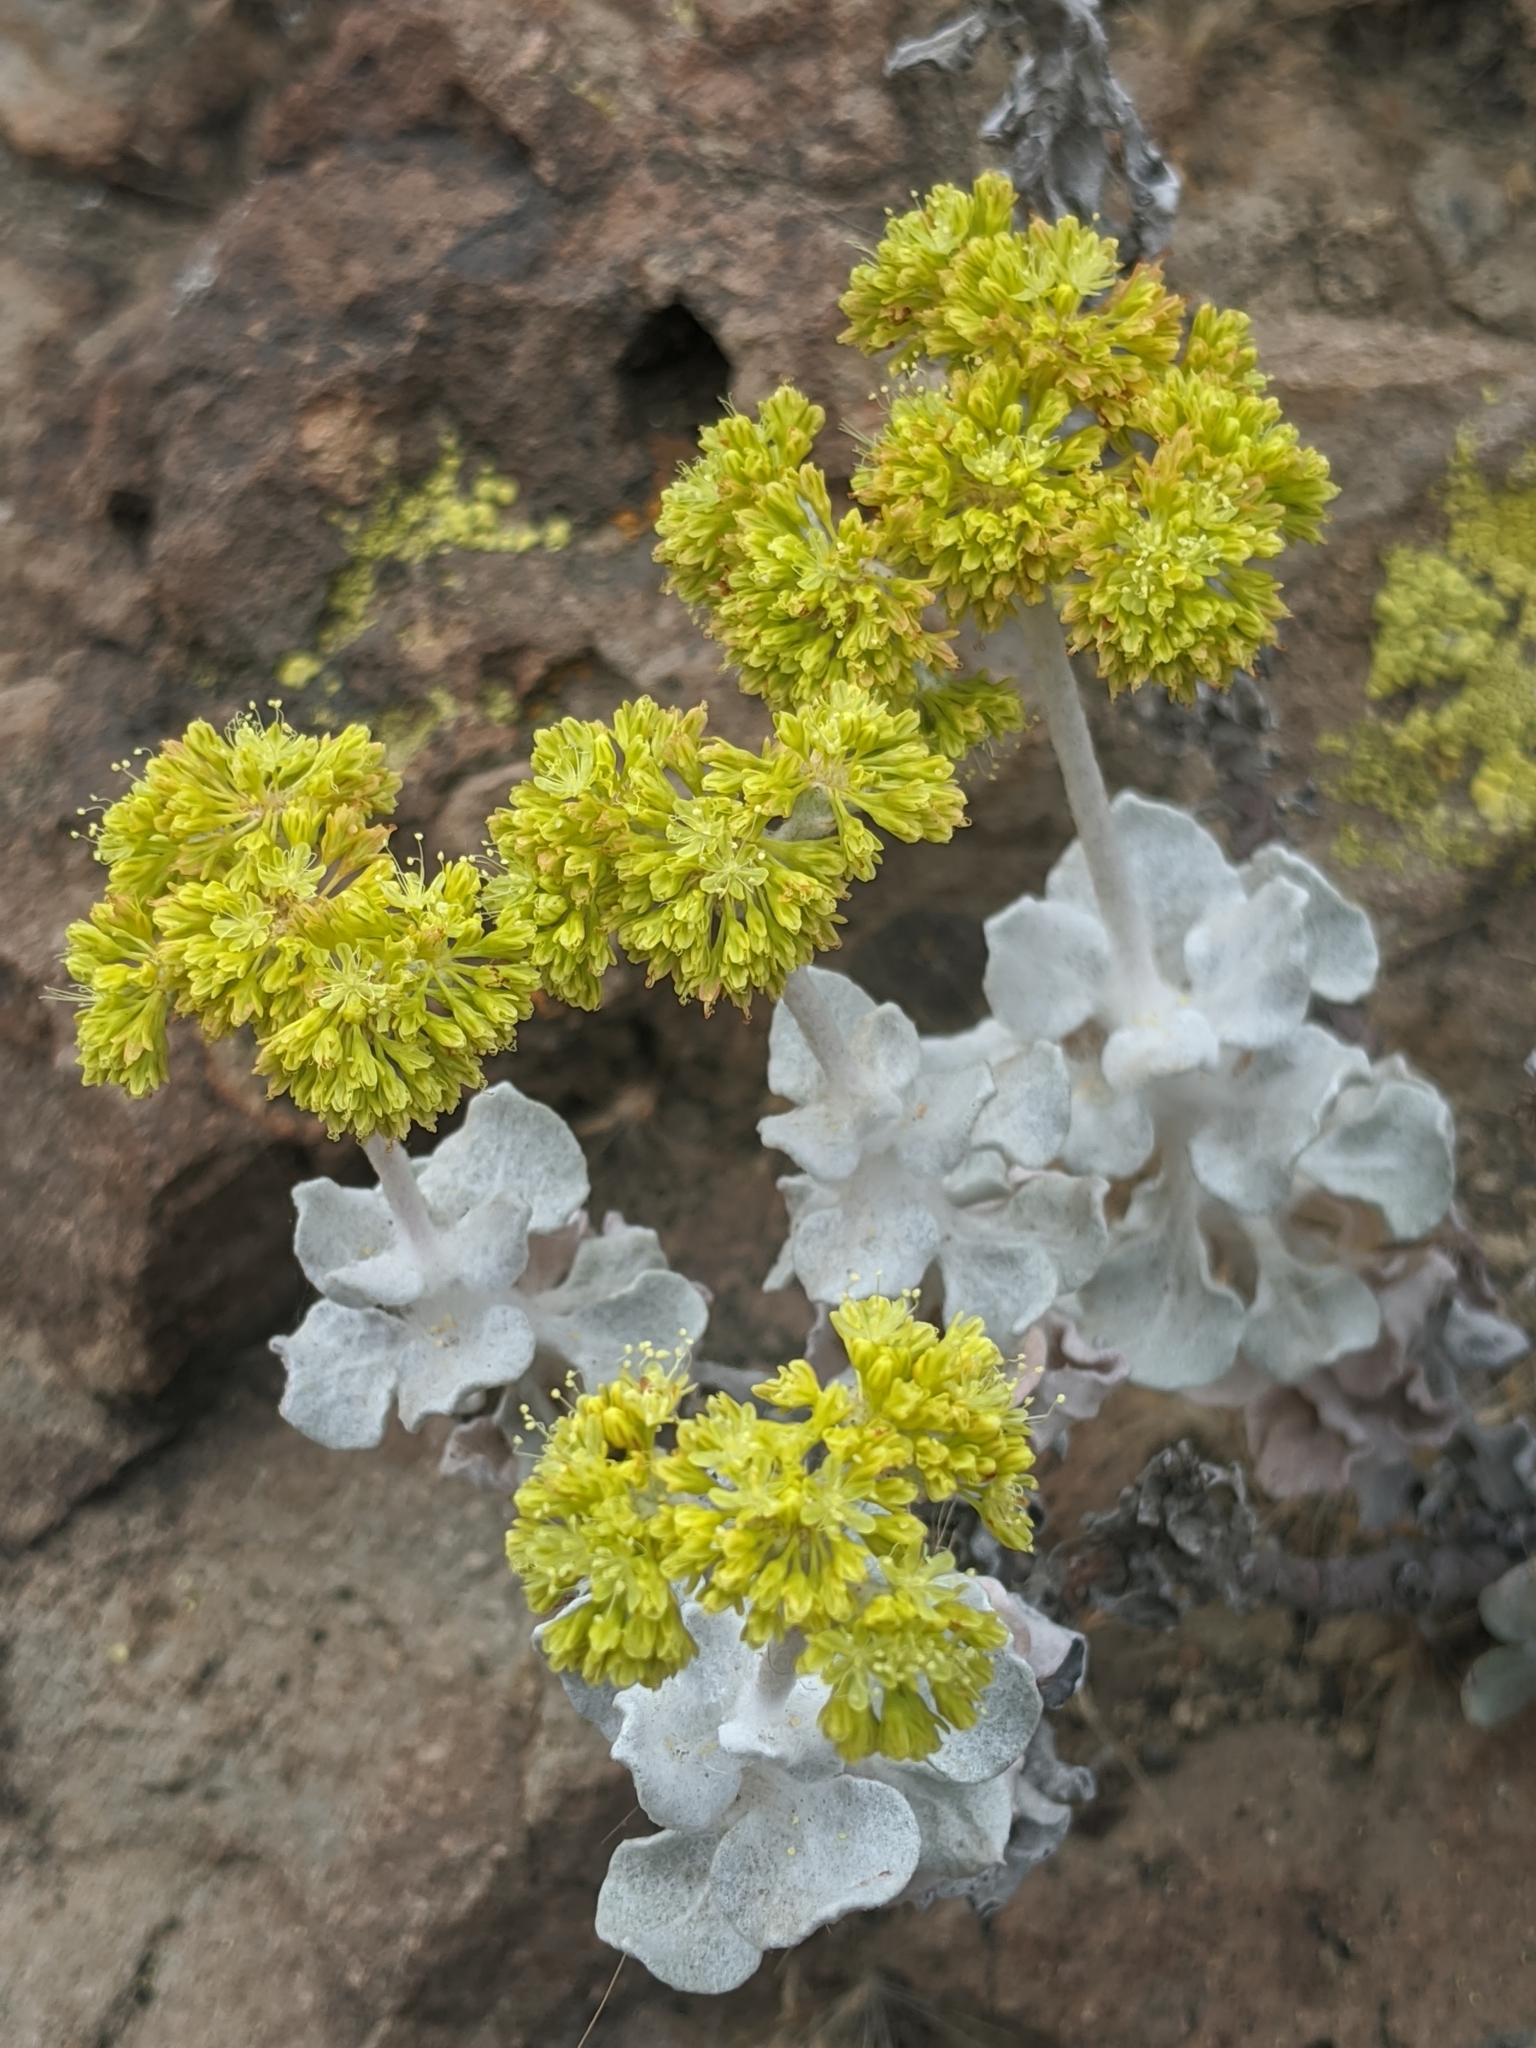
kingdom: Plantae
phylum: Tracheophyta
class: Magnoliopsida
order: Caryophyllales
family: Polygonaceae
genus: Eriogonum
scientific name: Eriogonum crocatum
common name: Saffron wild buckwheat
